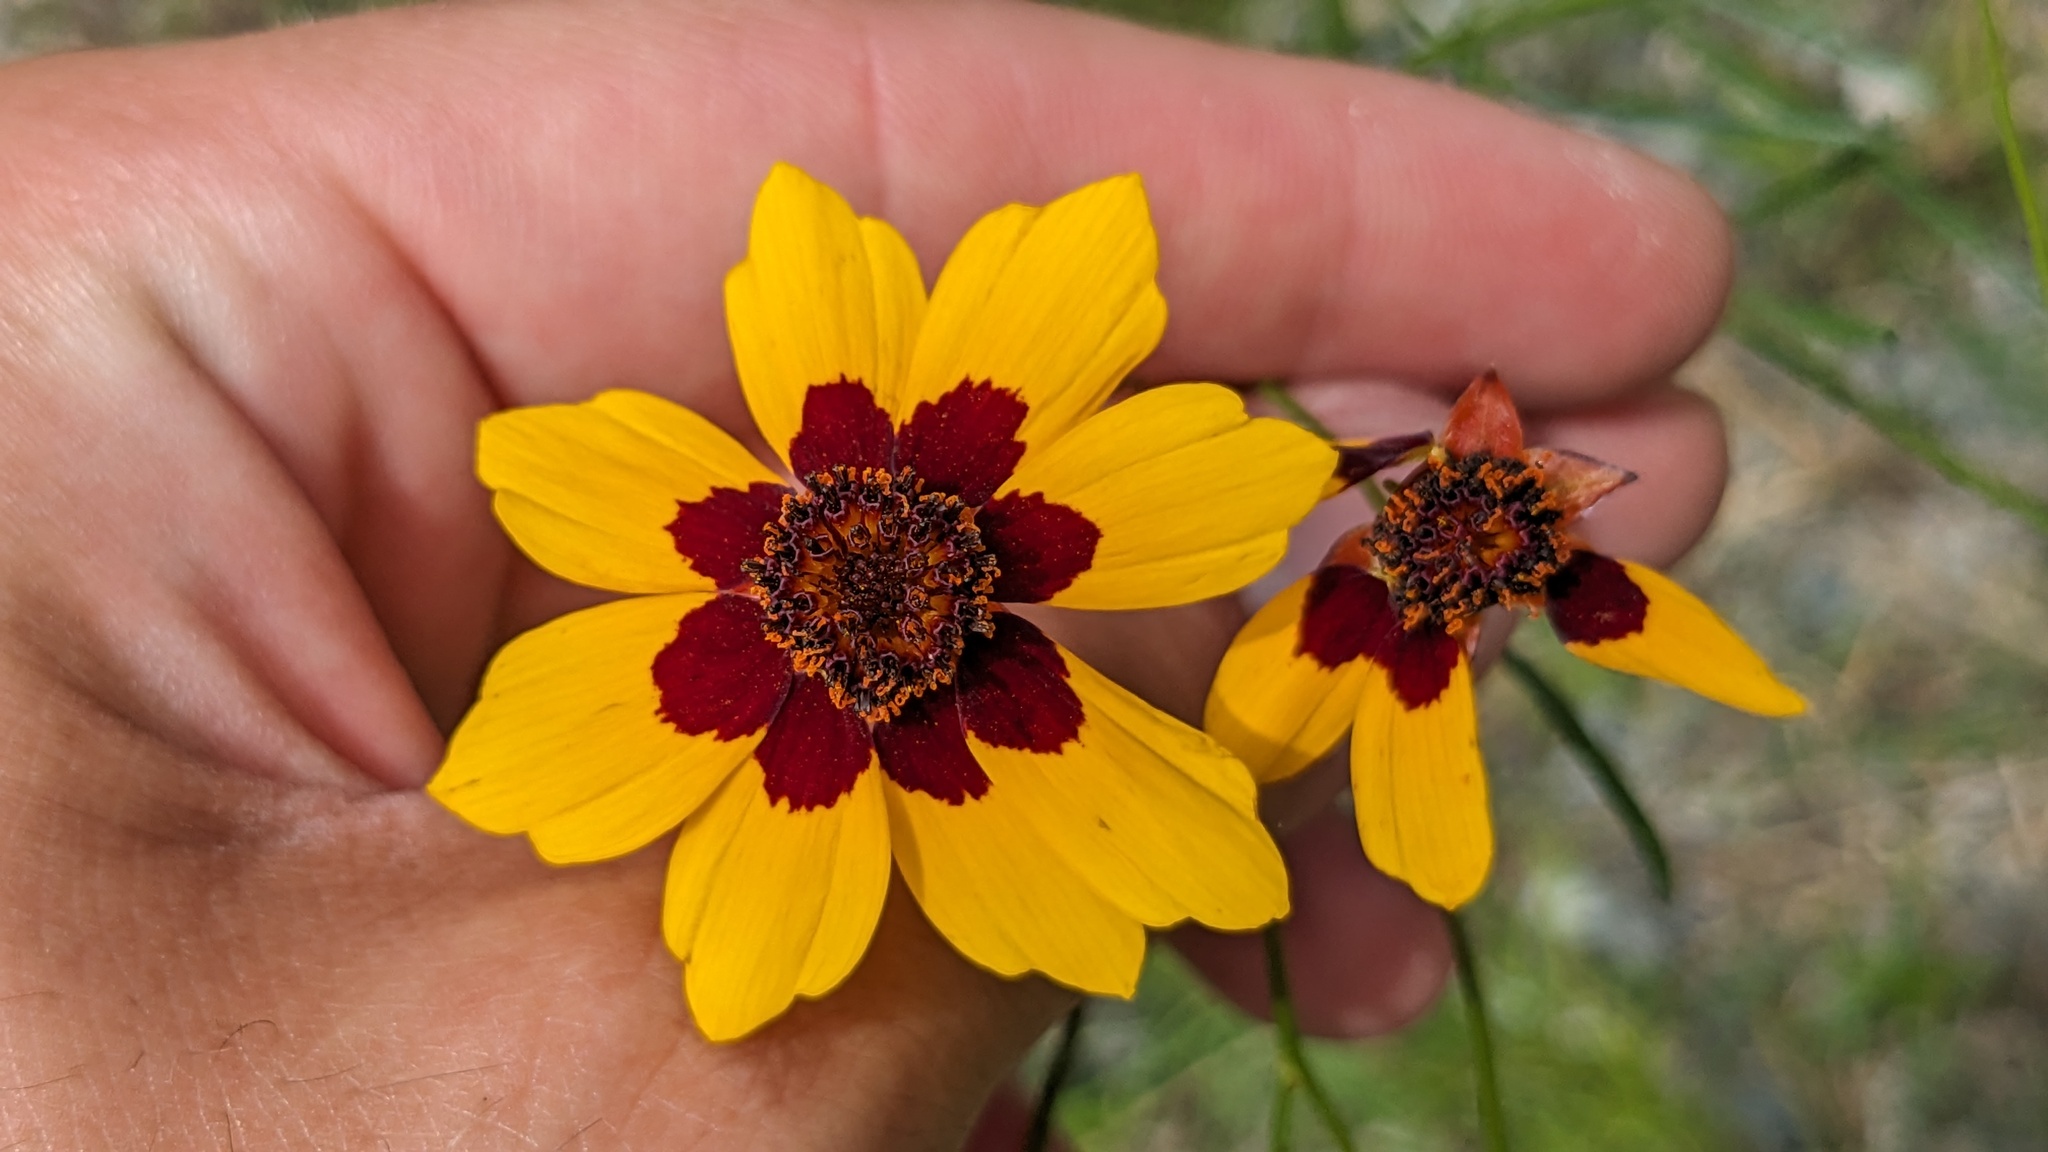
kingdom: Plantae
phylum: Tracheophyta
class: Magnoliopsida
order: Asterales
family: Asteraceae
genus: Coreopsis
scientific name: Coreopsis tinctoria
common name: Garden tickseed
